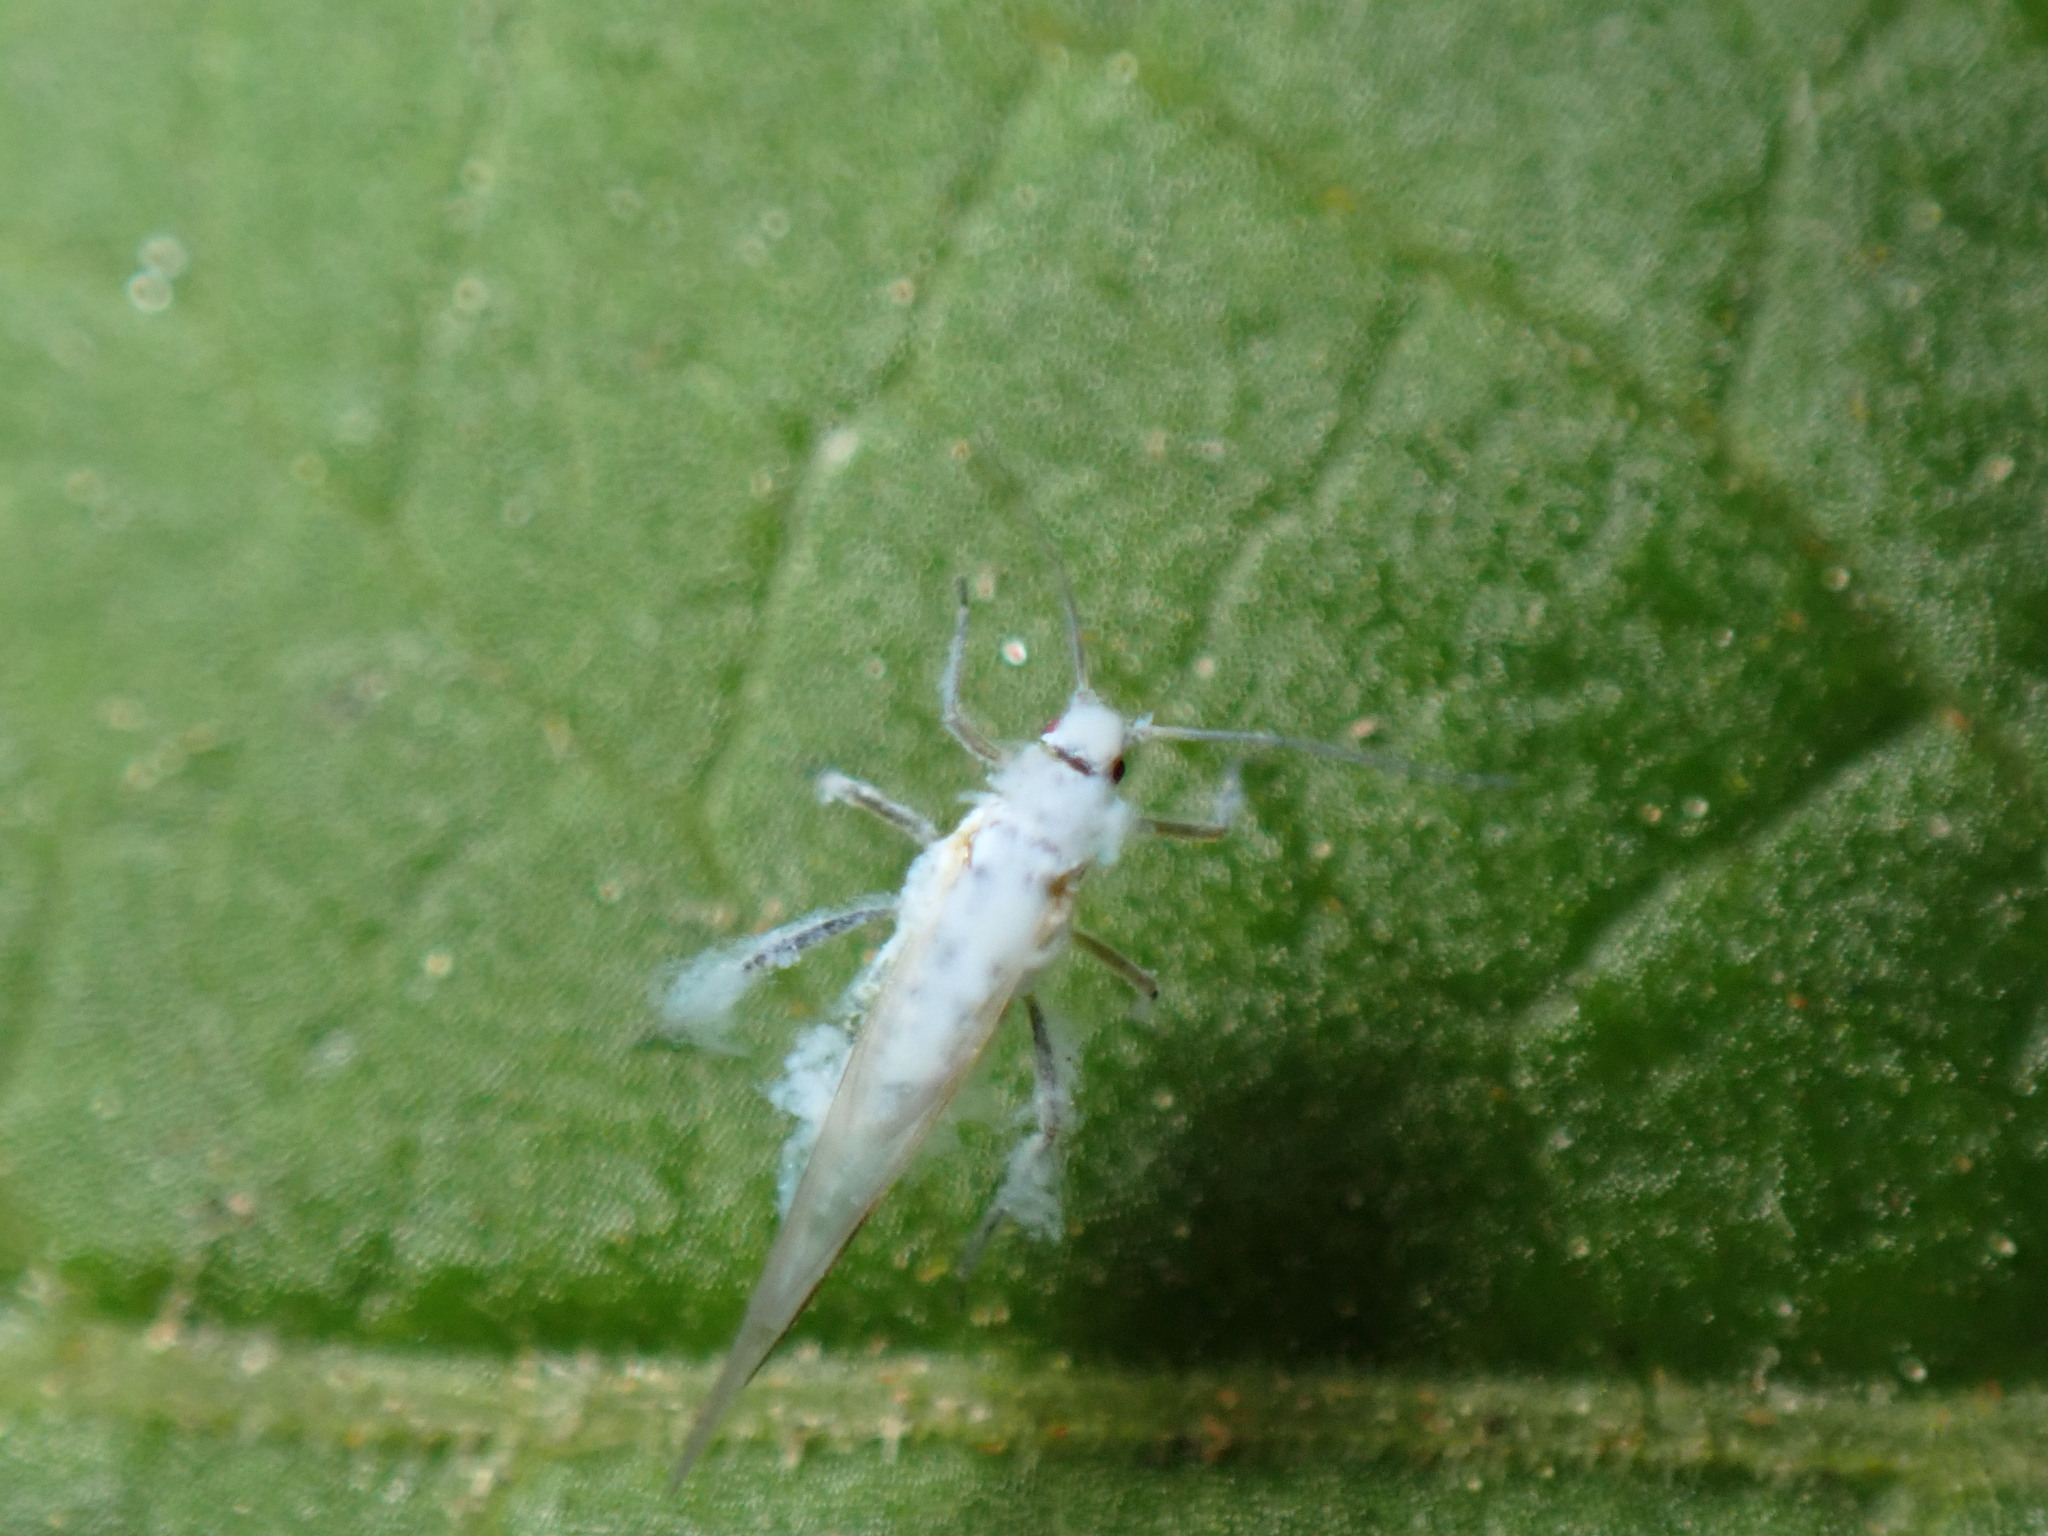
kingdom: Animalia
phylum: Arthropoda
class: Insecta
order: Hemiptera
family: Aphididae
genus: Phyllaphis
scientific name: Phyllaphis fagi
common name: Beech aphid
